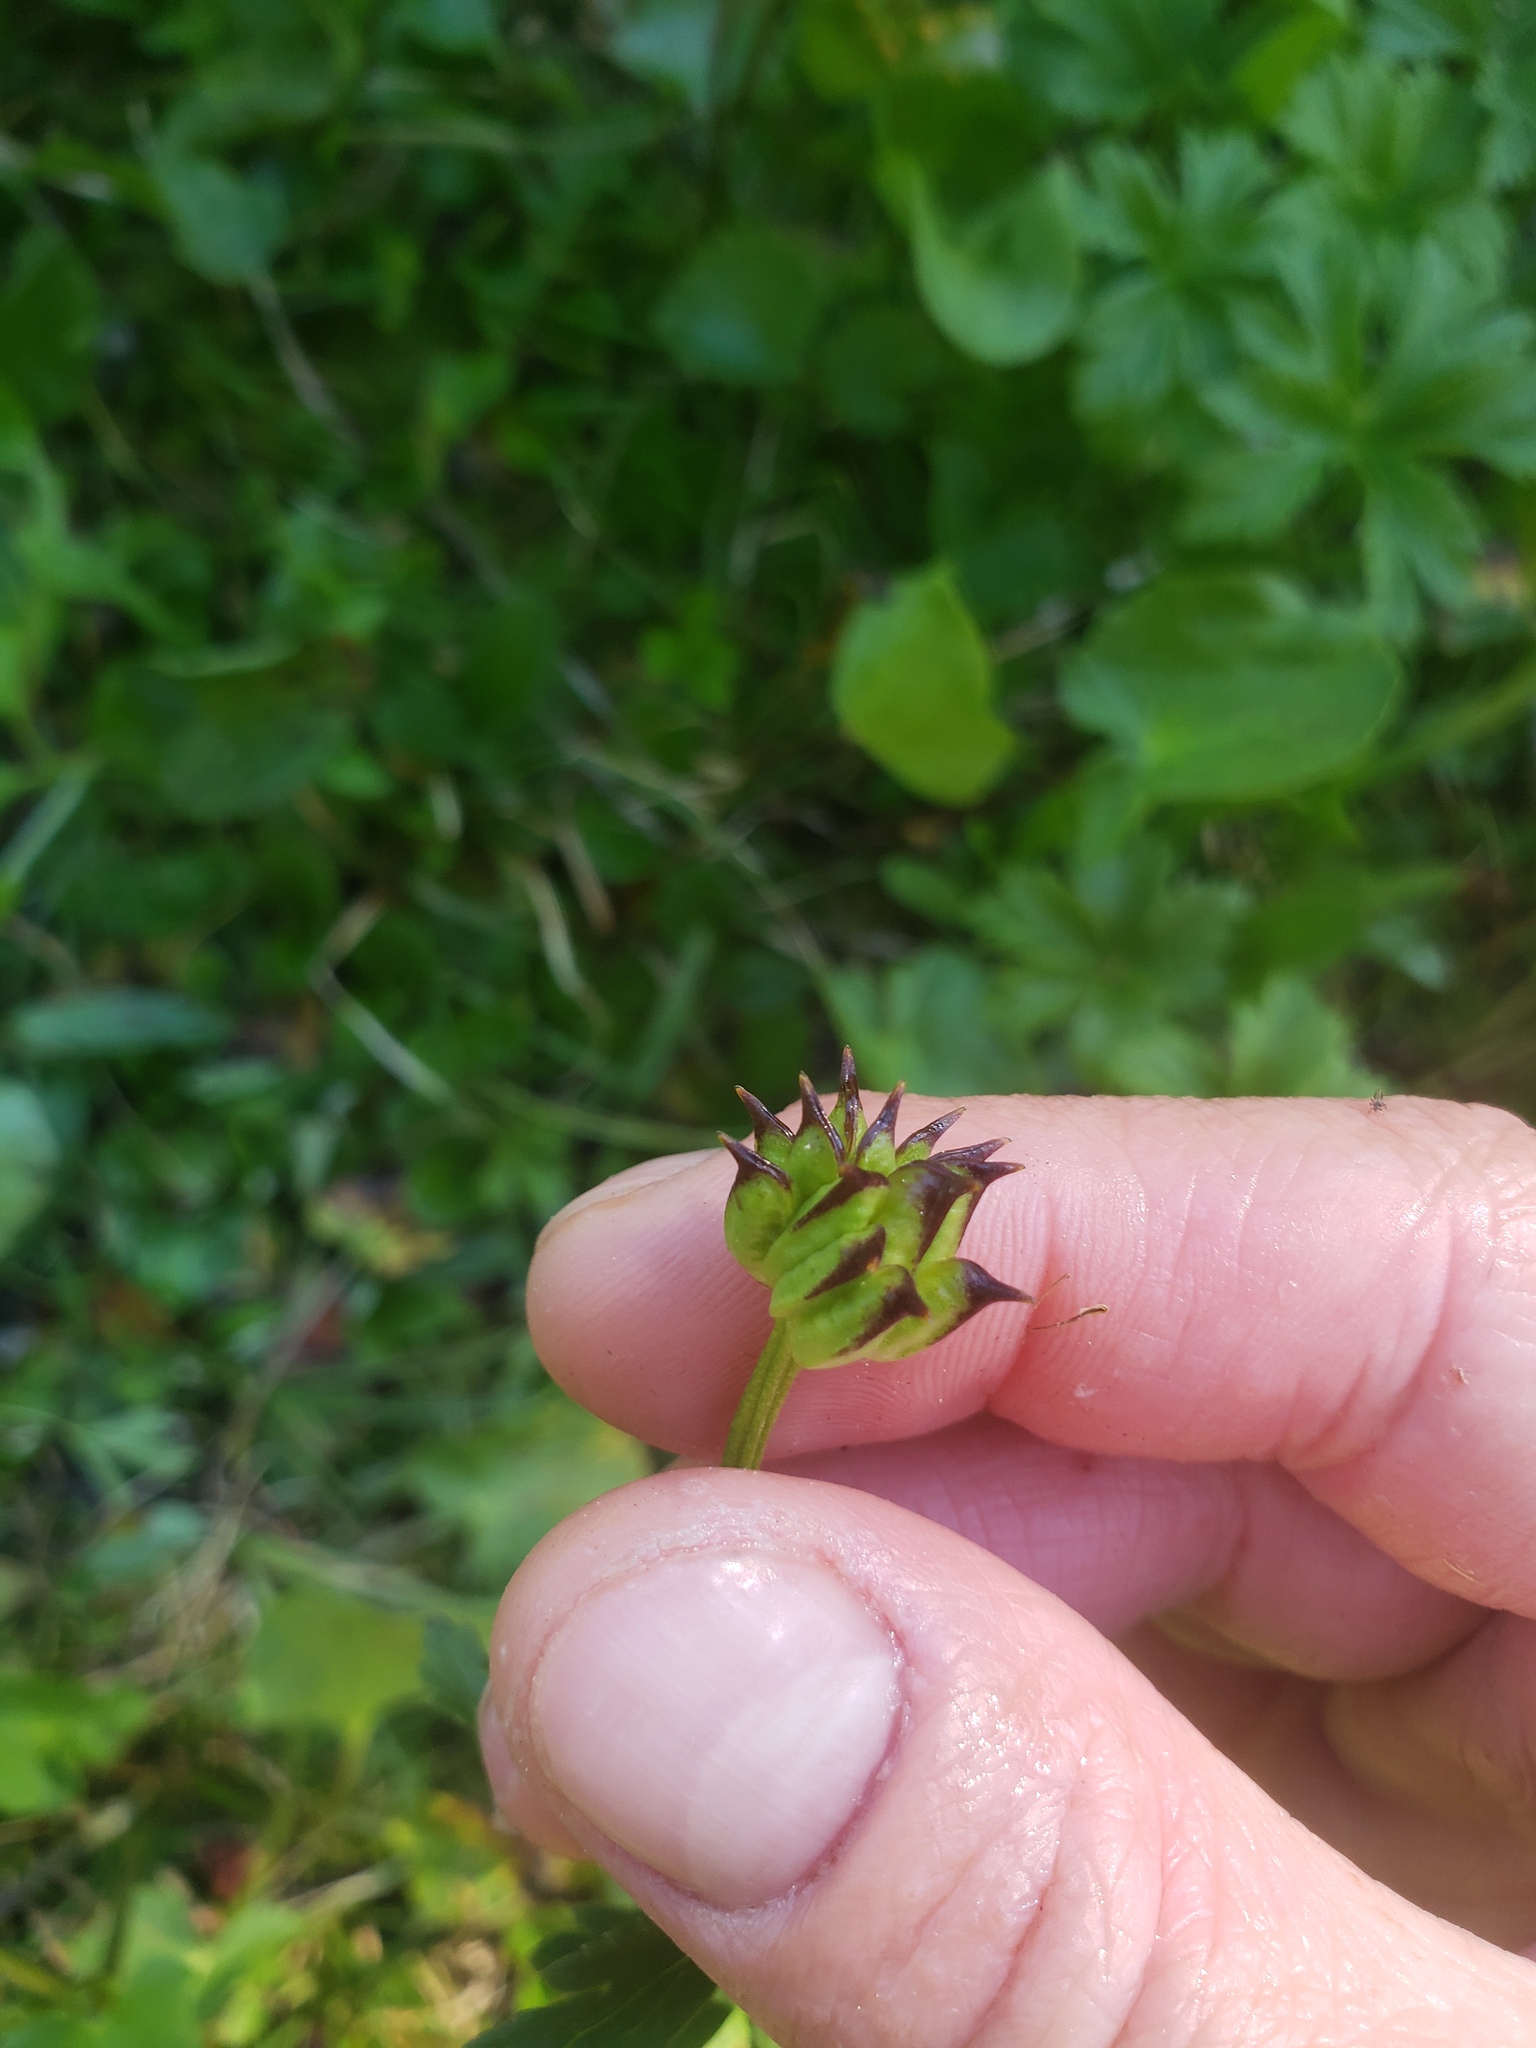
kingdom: Plantae
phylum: Tracheophyta
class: Magnoliopsida
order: Ranunculales
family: Ranunculaceae
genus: Trollius
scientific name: Trollius laxus
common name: American globeflower
